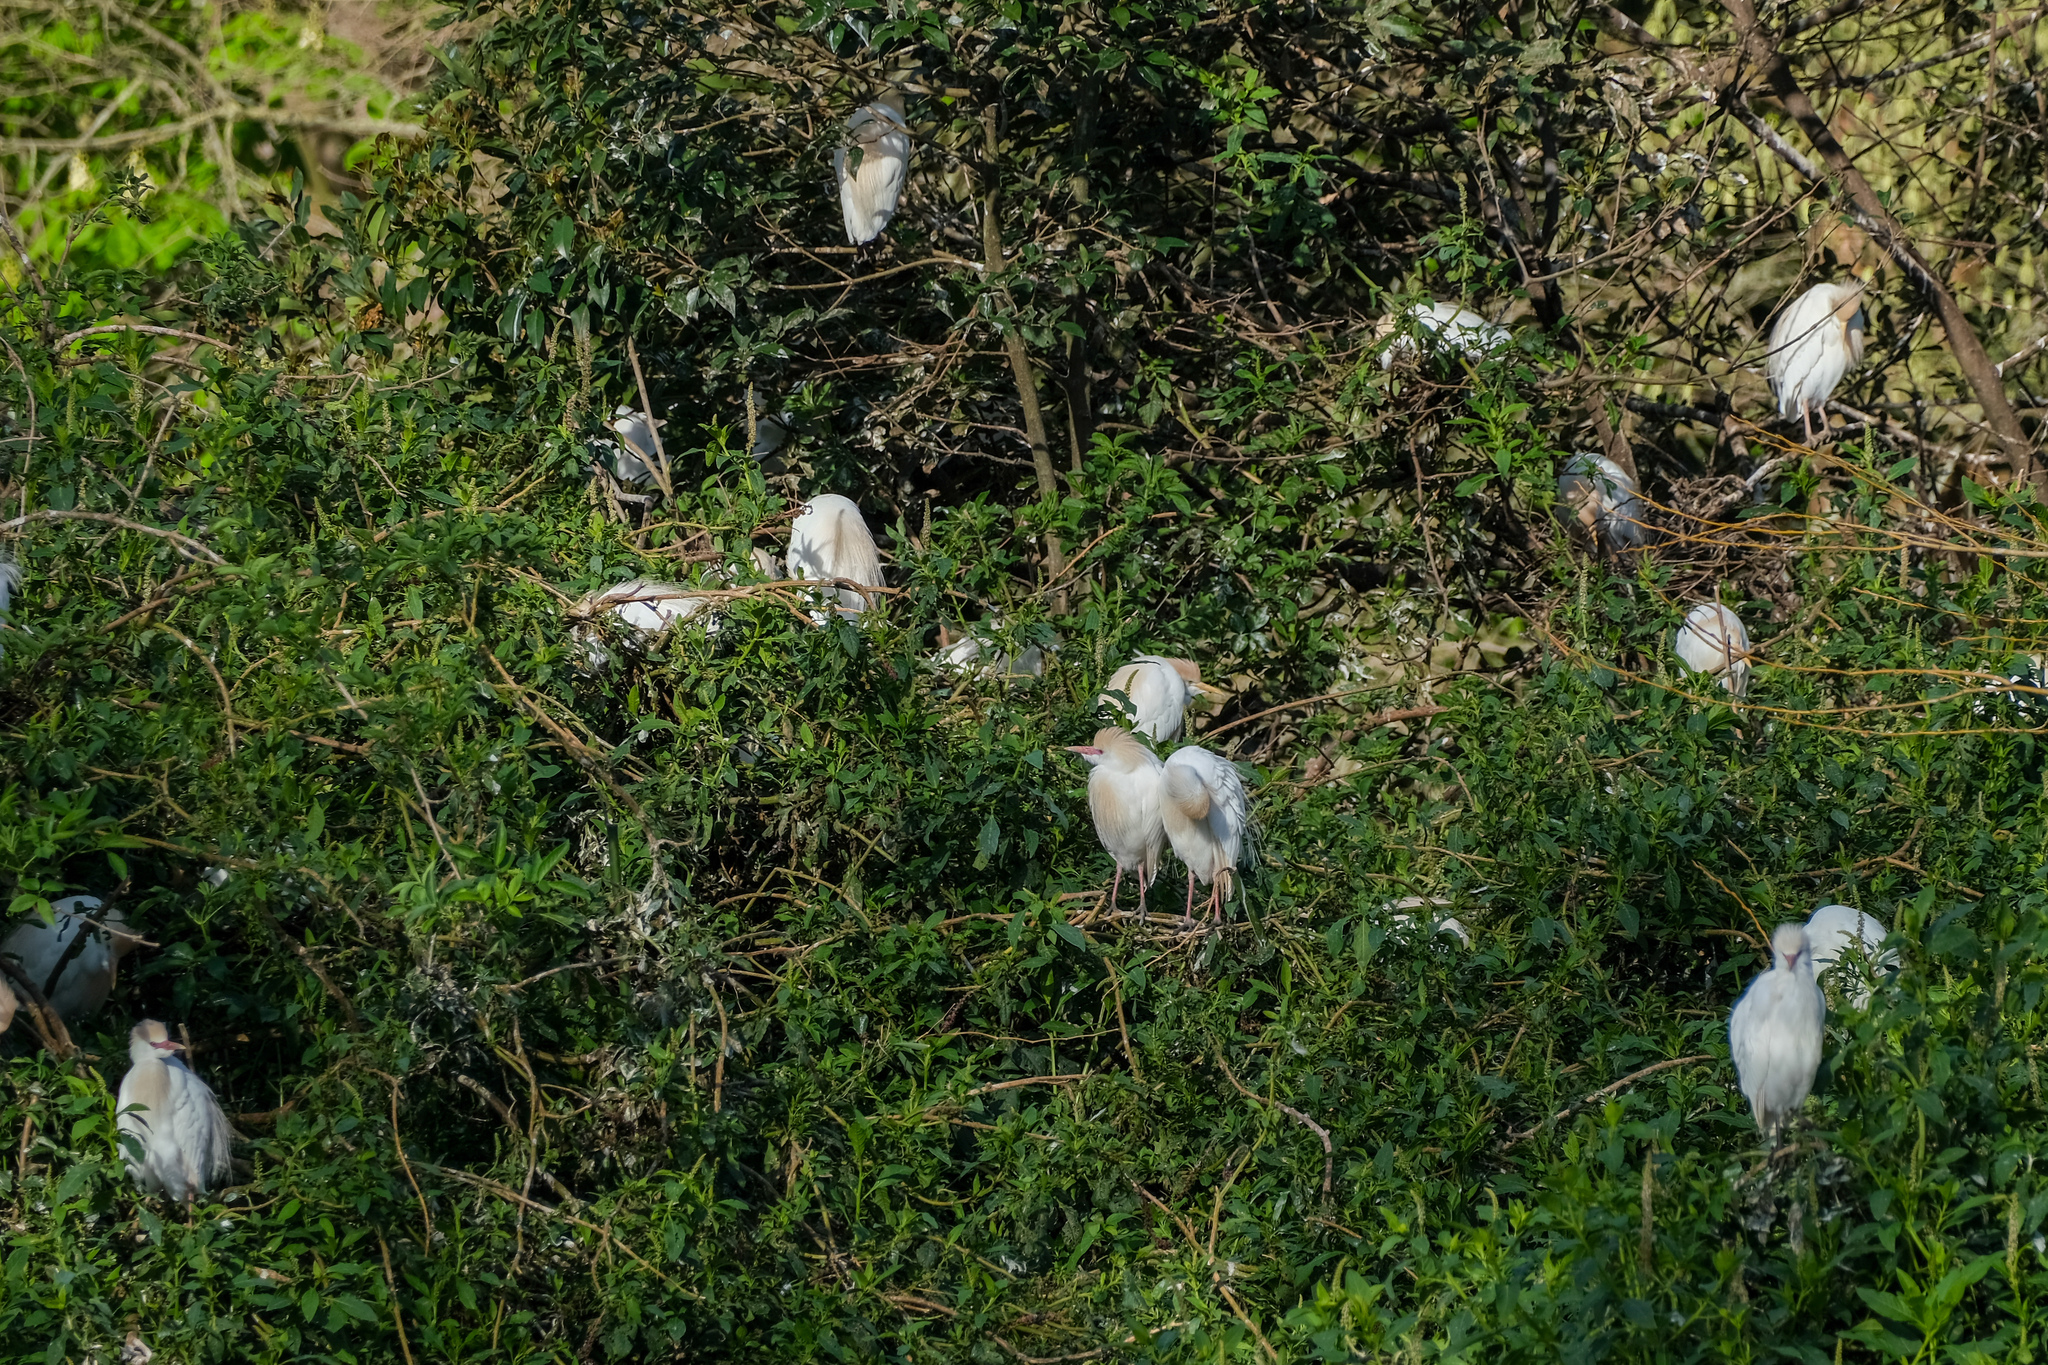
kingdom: Animalia
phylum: Chordata
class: Aves
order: Pelecaniformes
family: Ardeidae
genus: Bubulcus
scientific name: Bubulcus ibis
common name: Cattle egret
